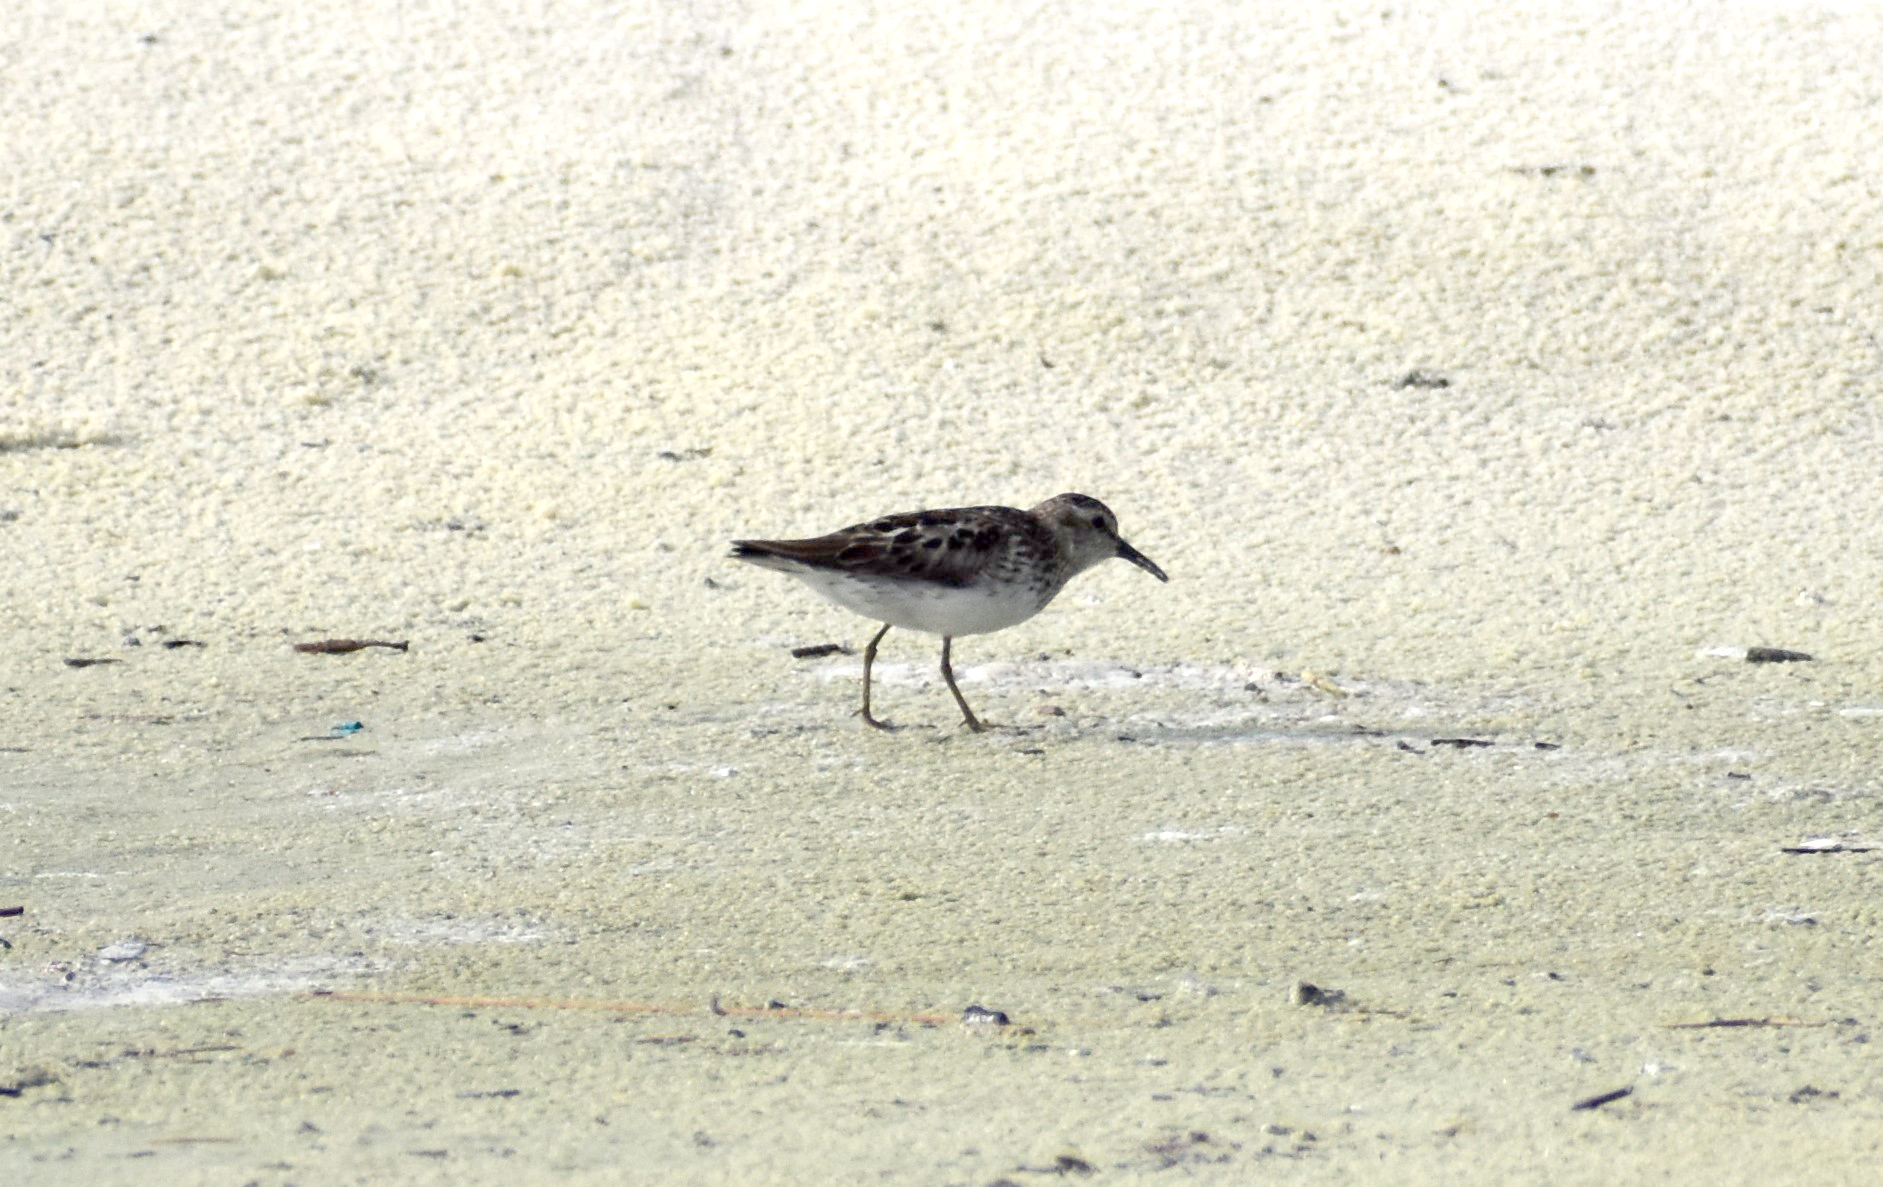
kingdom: Animalia
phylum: Chordata
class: Aves
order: Charadriiformes
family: Scolopacidae
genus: Calidris
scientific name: Calidris minutilla
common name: Least sandpiper
